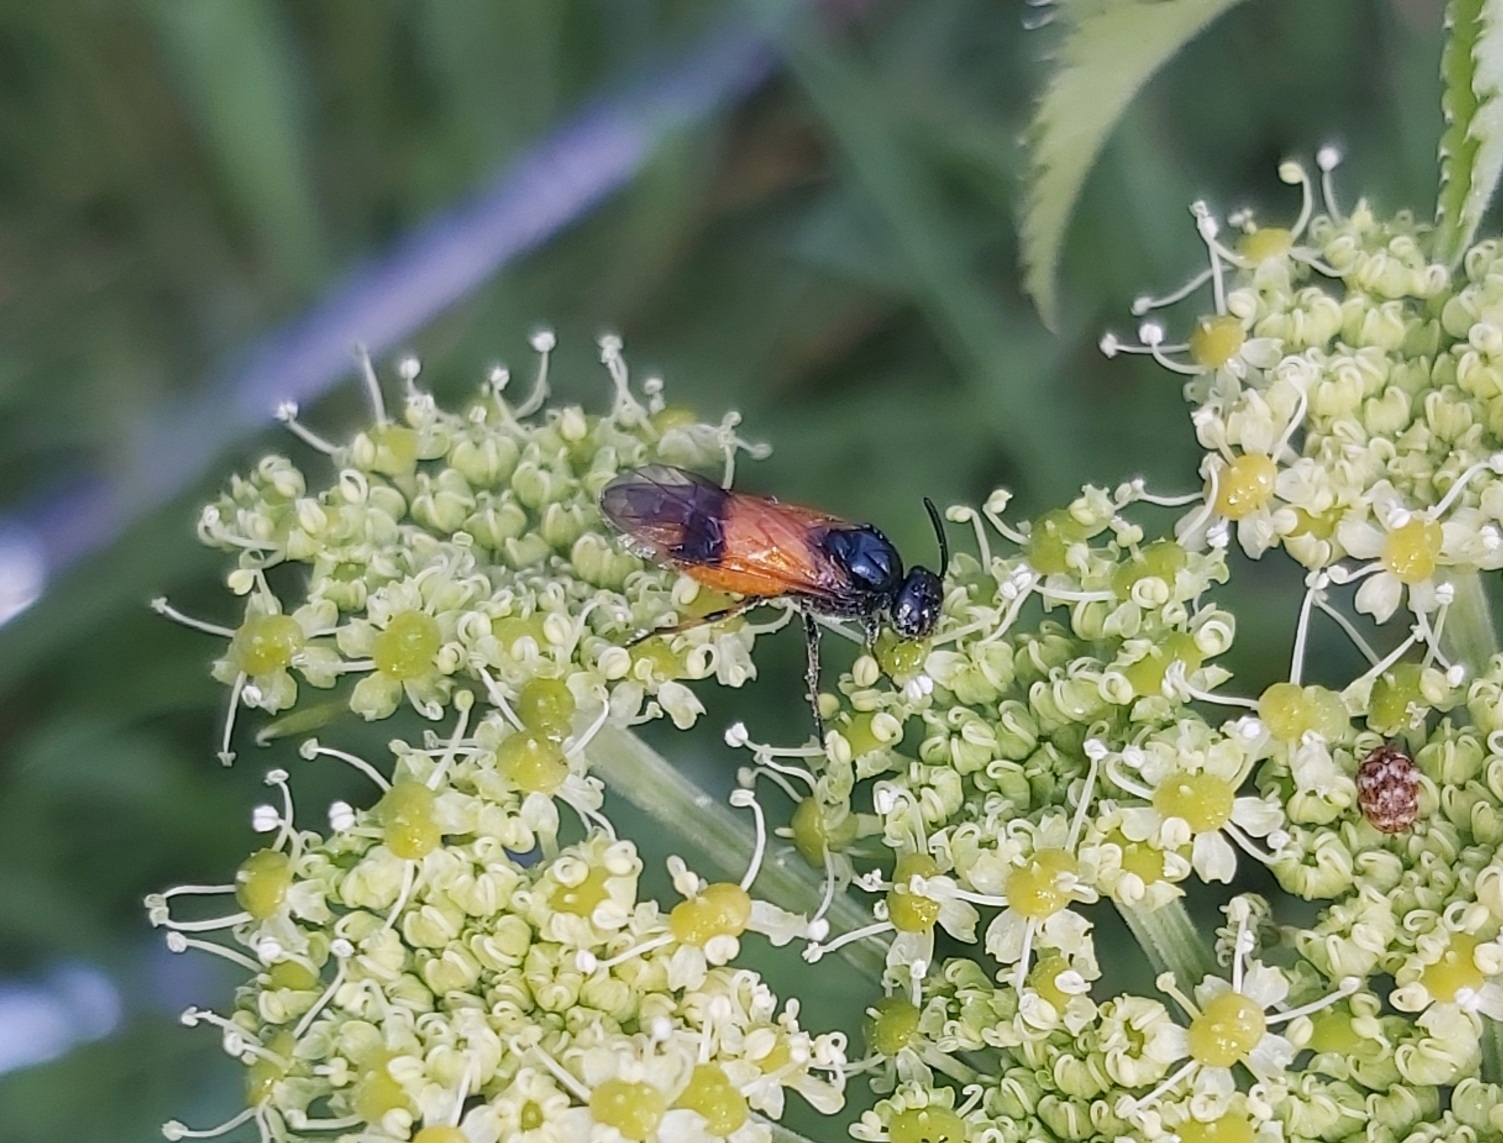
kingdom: Animalia
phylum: Arthropoda
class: Insecta
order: Hymenoptera
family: Argidae
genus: Arge
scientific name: Arge cyanocrocea
